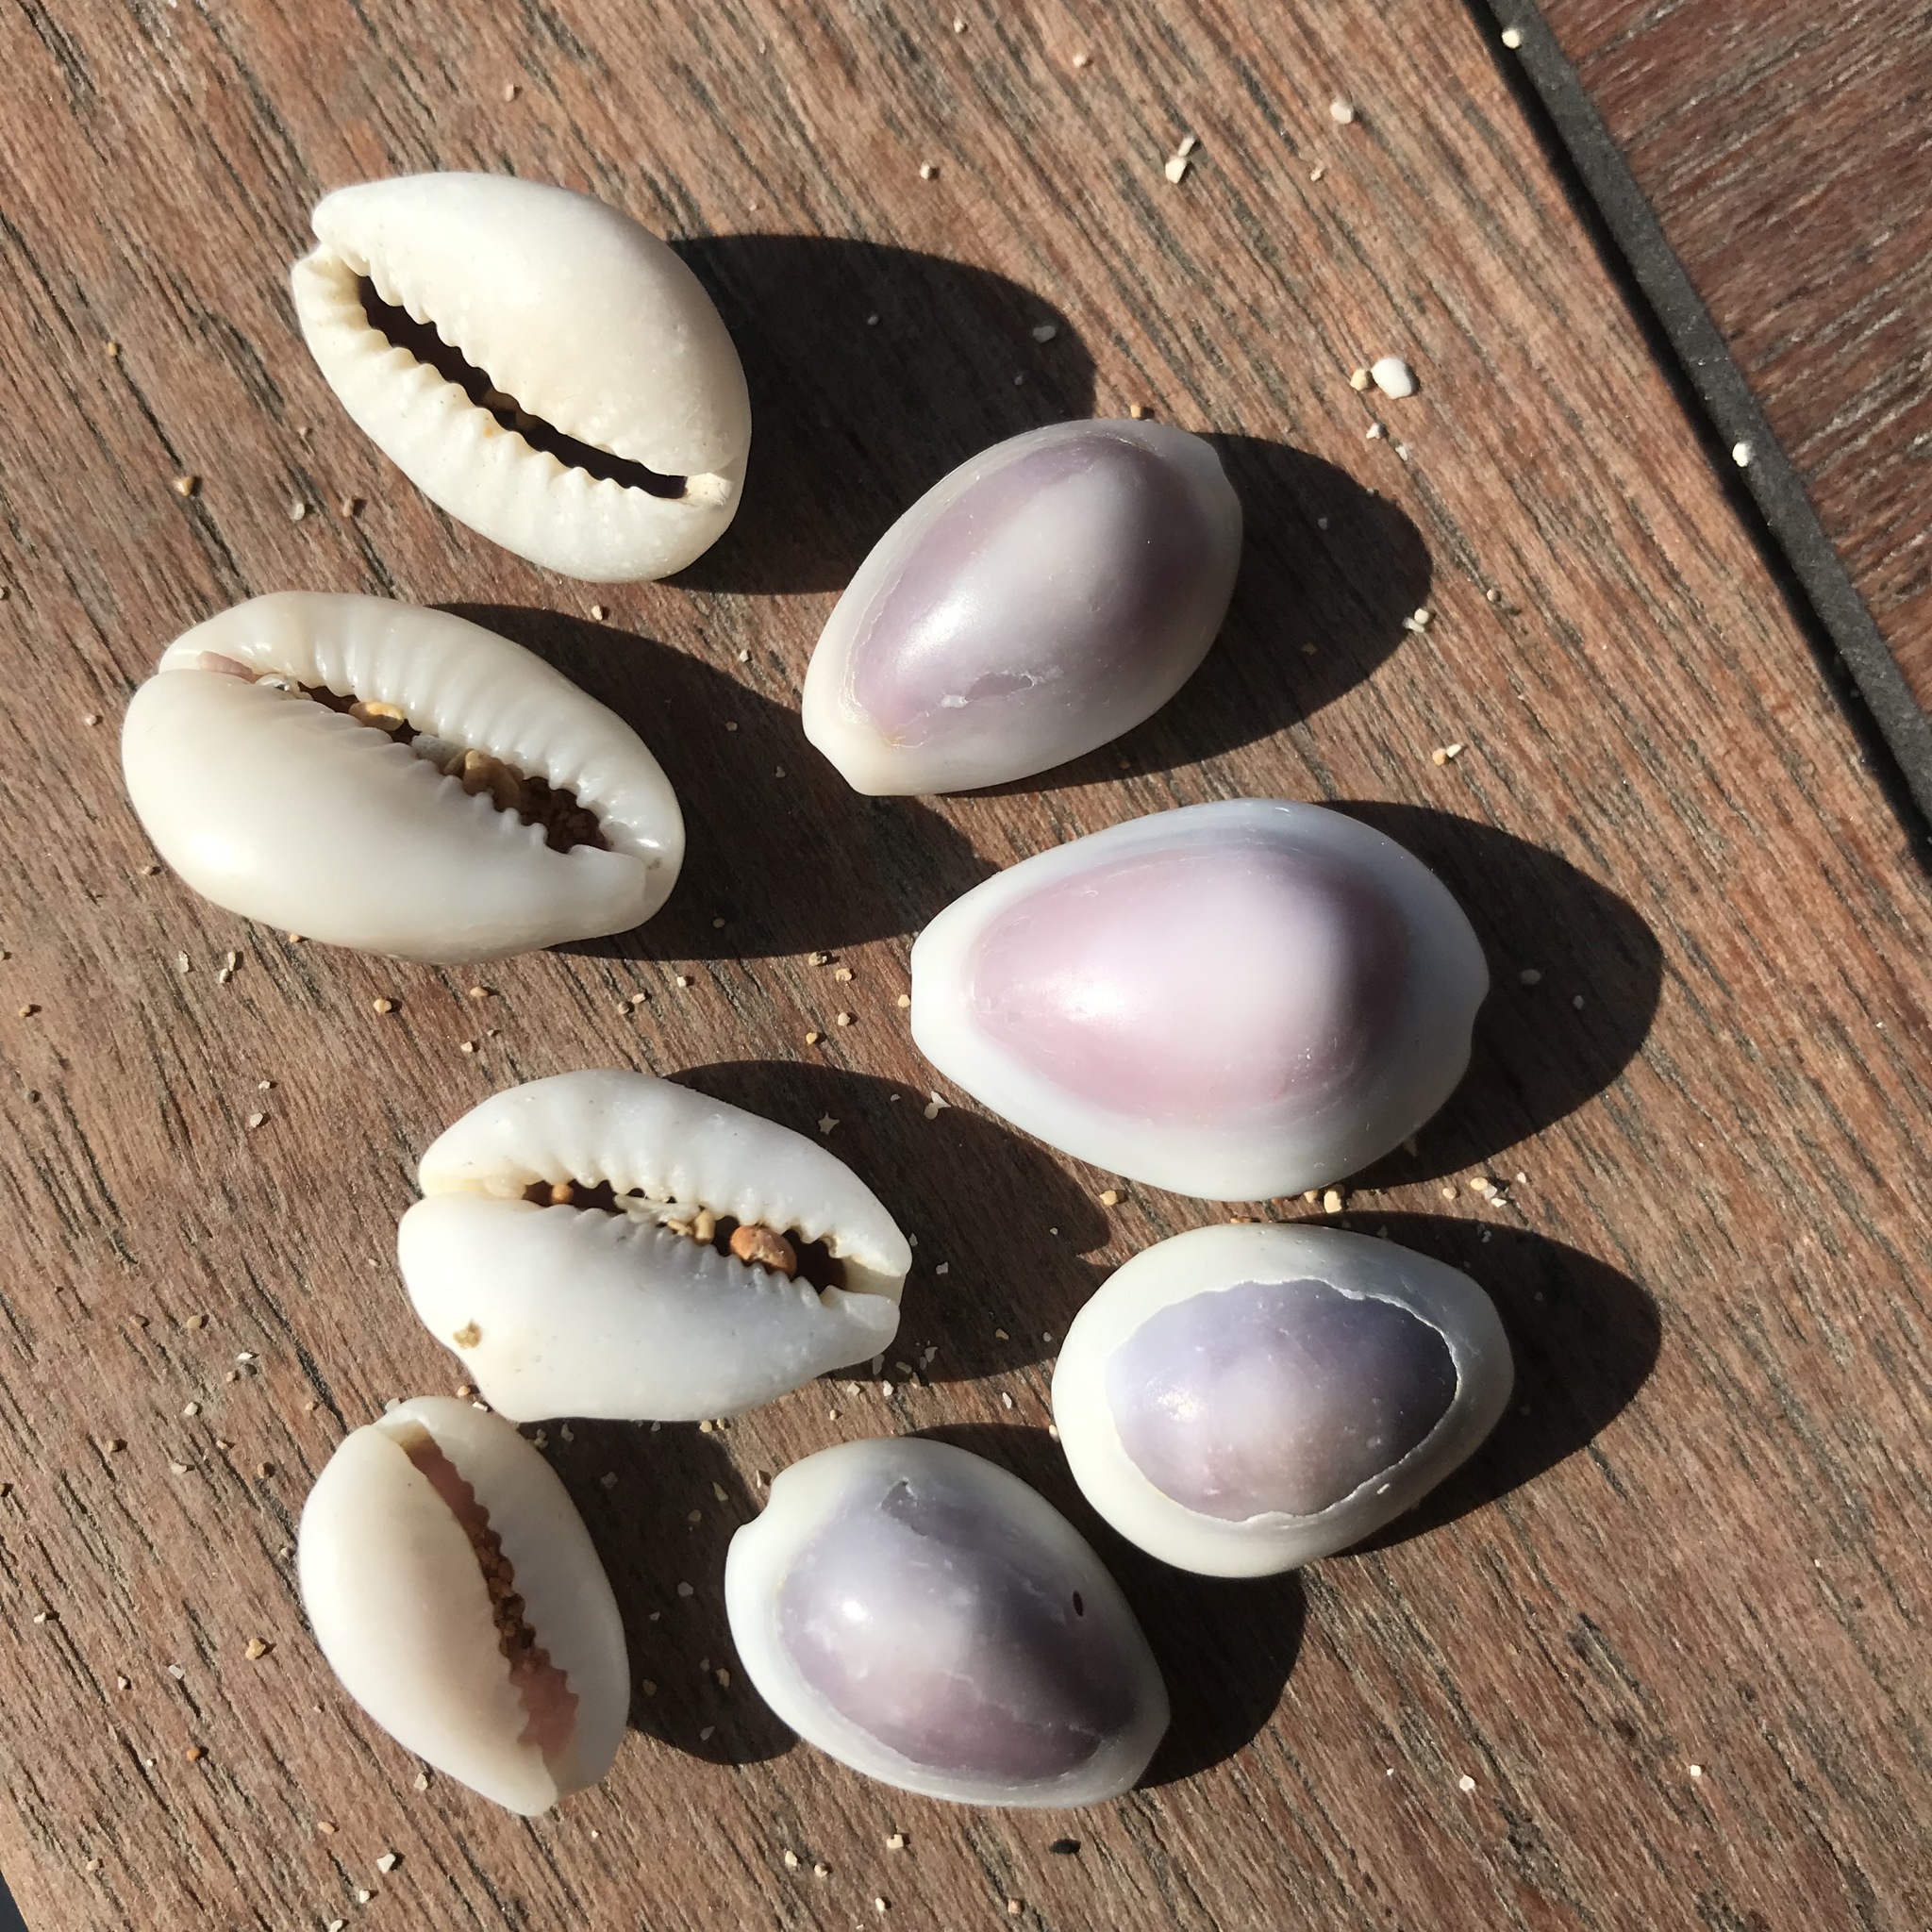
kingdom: Animalia
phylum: Mollusca
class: Gastropoda
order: Littorinimorpha
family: Cypraeidae
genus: Monetaria
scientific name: Monetaria moneta
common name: Money cowrie
